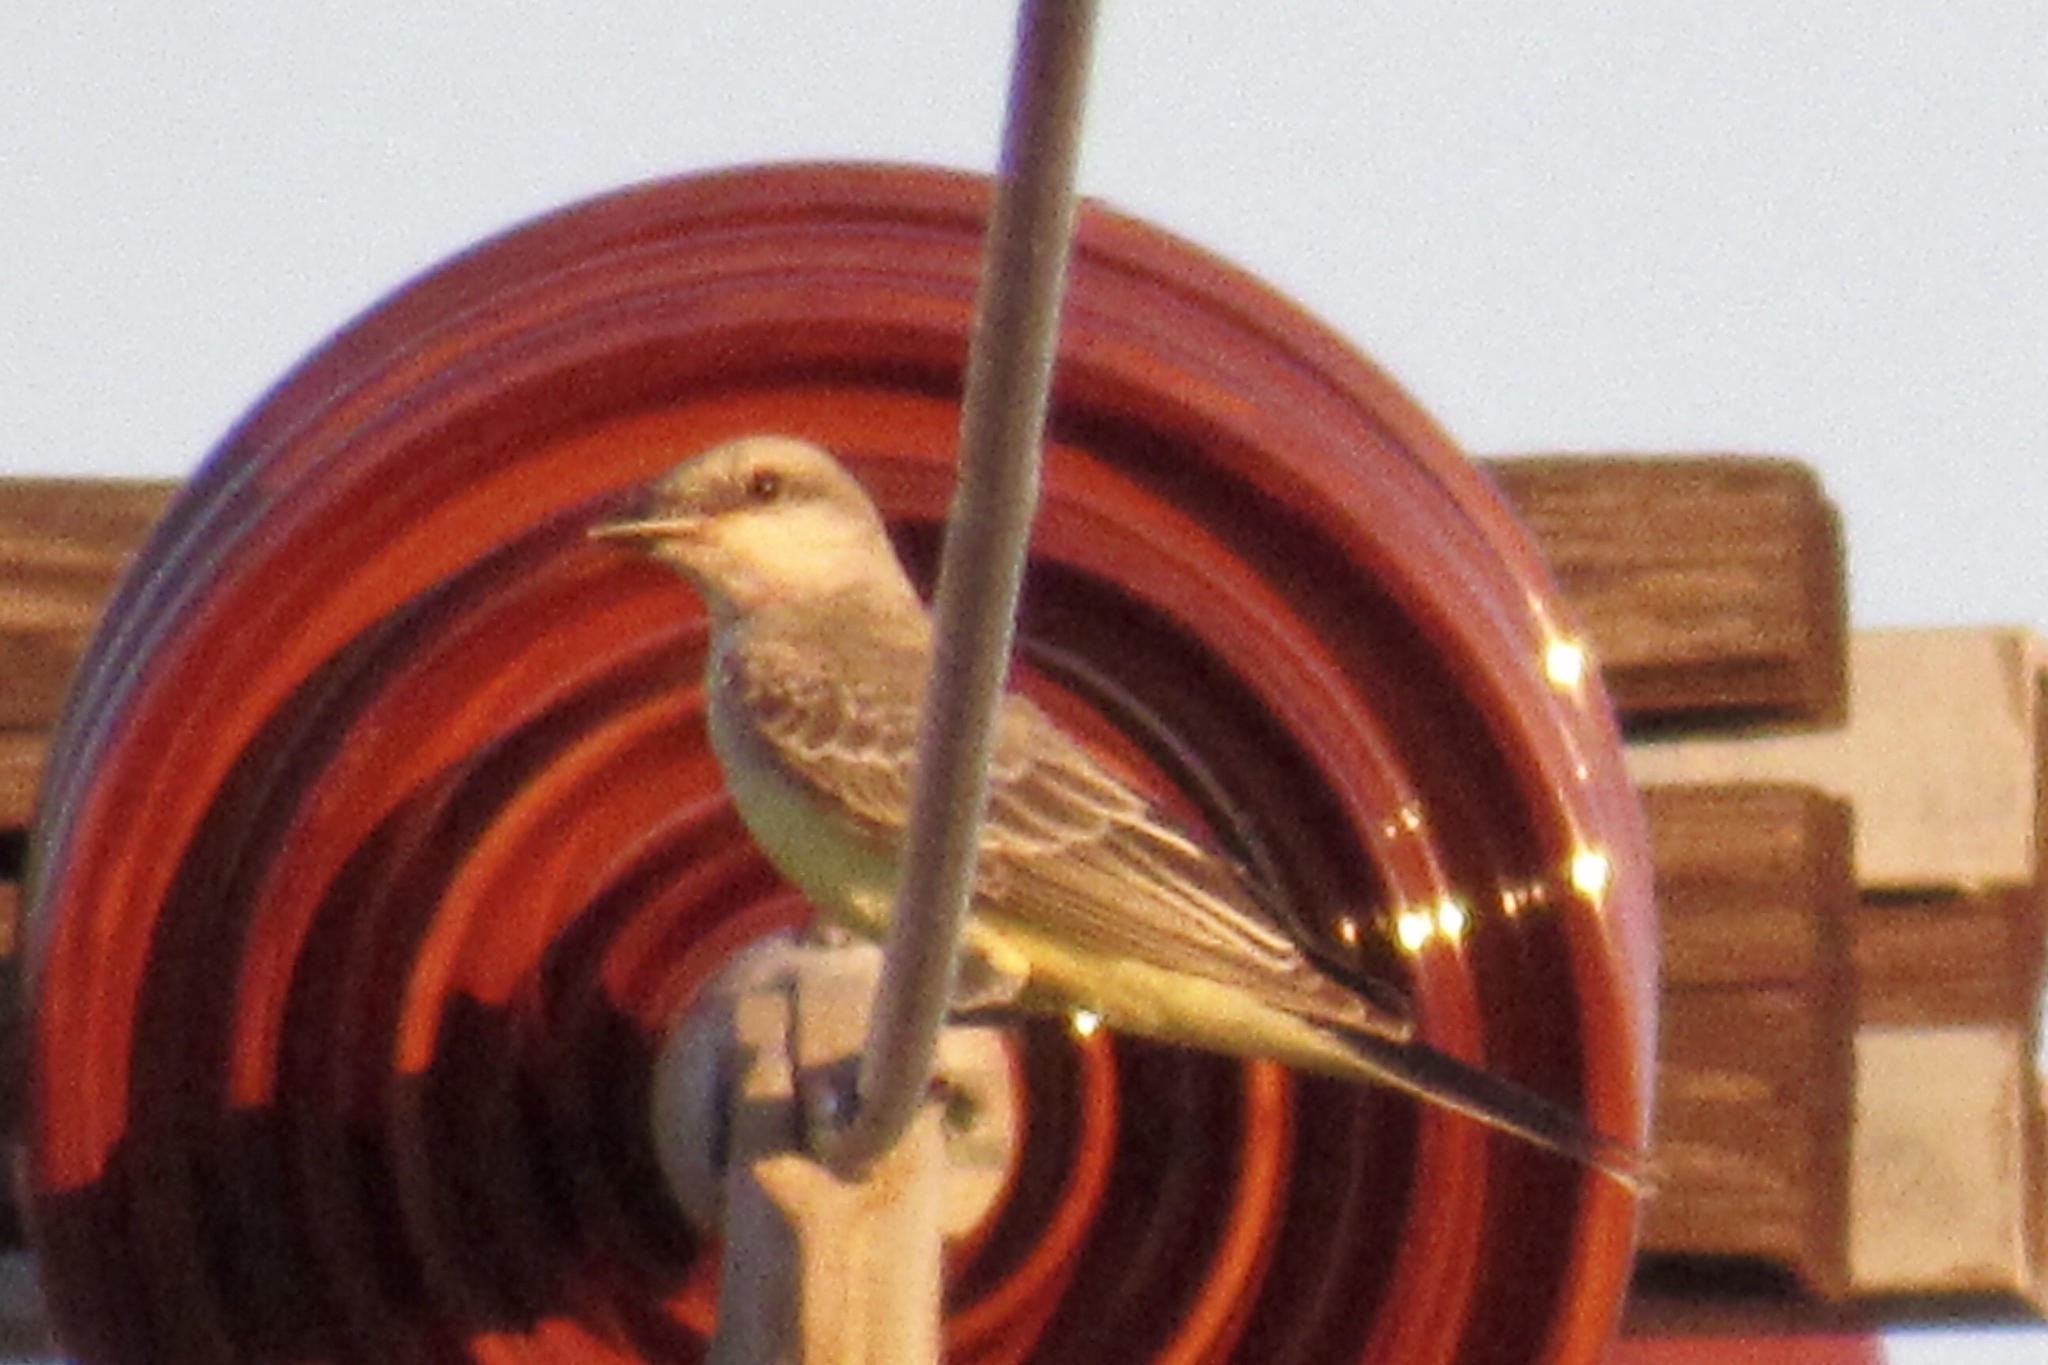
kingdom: Animalia
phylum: Chordata
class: Aves
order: Passeriformes
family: Tyrannidae
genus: Tyrannus
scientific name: Tyrannus verticalis
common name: Western kingbird
